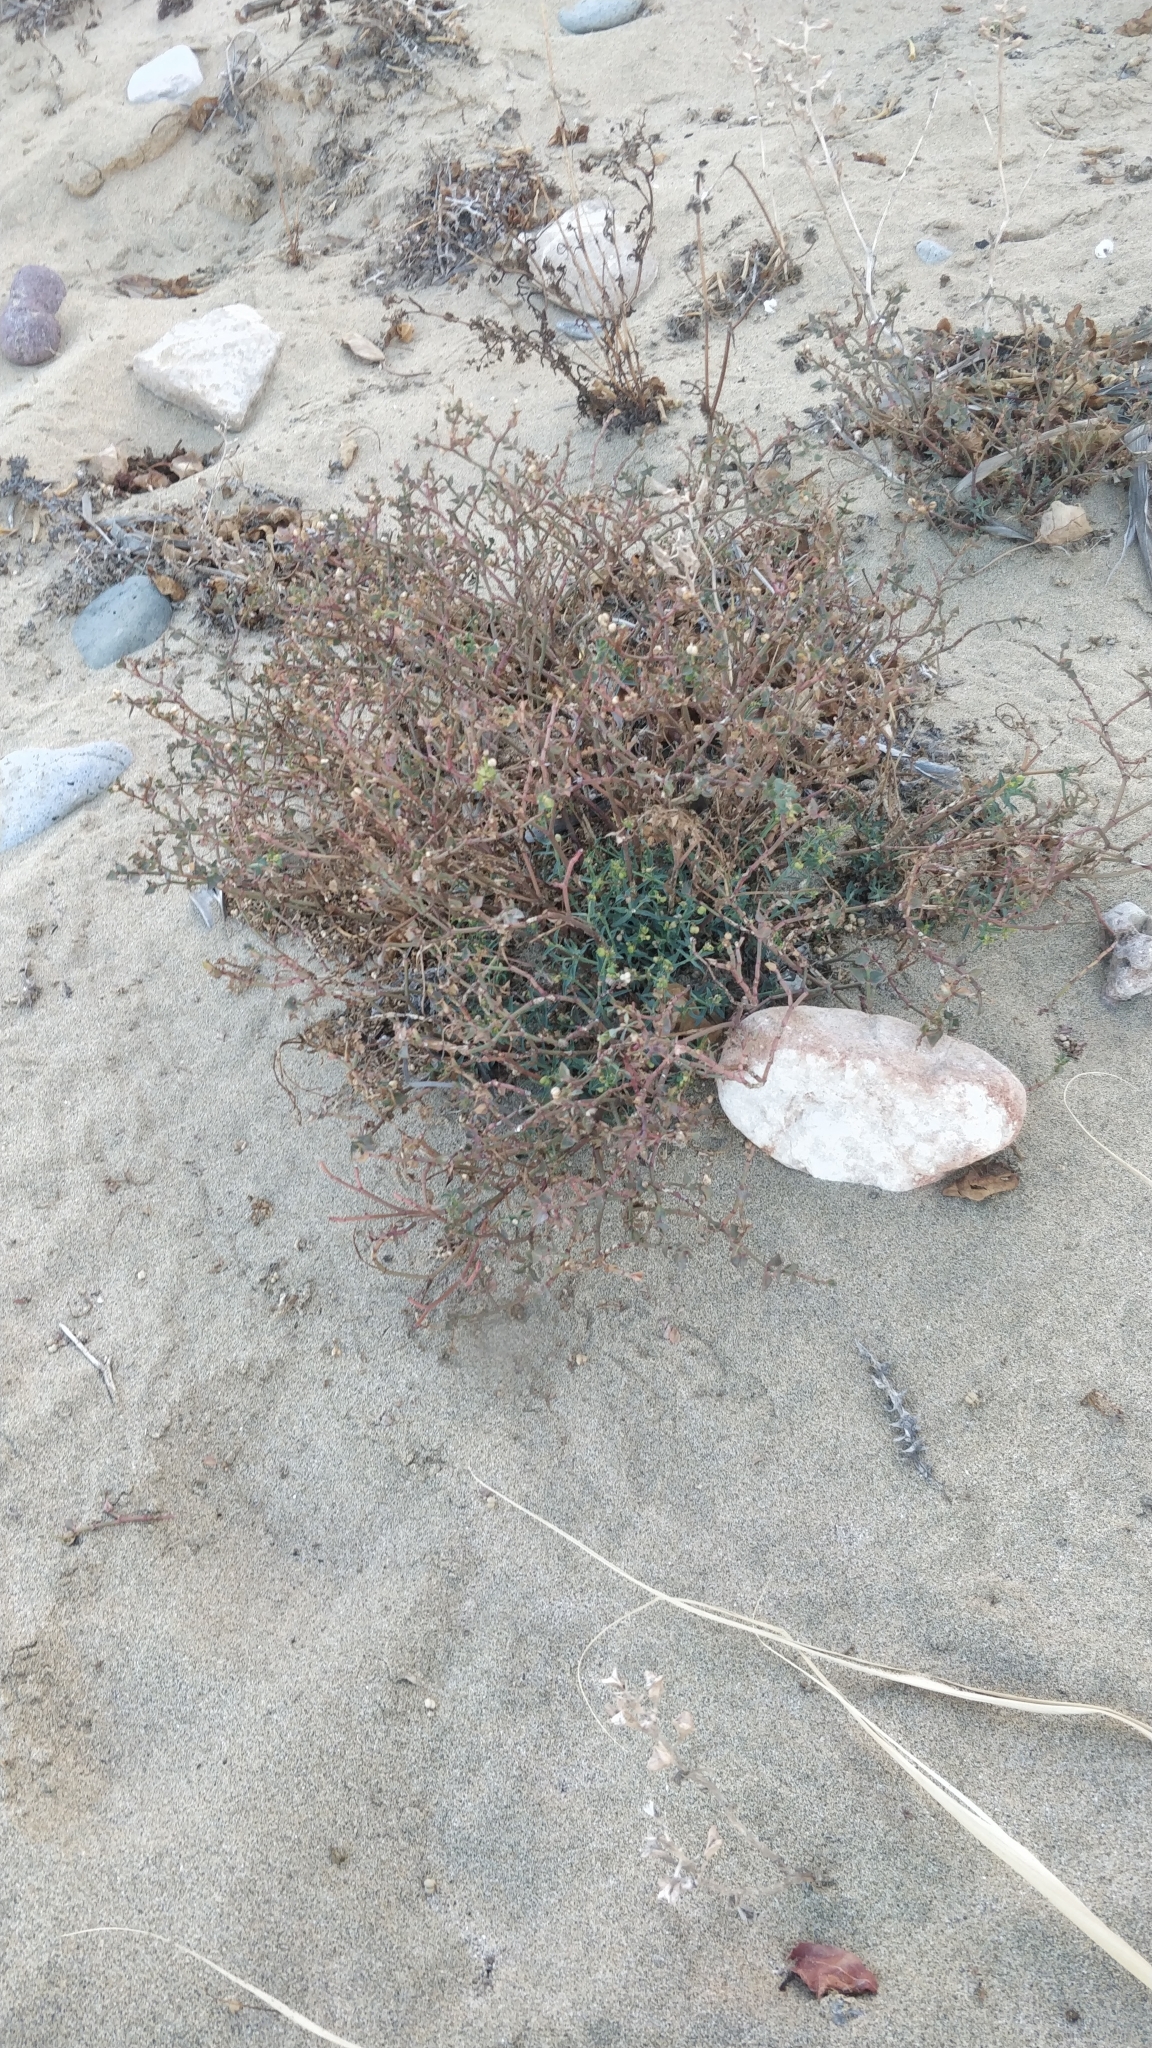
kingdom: Plantae
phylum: Tracheophyta
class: Magnoliopsida
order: Malpighiales
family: Euphorbiaceae
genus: Euphorbia
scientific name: Euphorbia terracina
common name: Geraldton carnation weed
